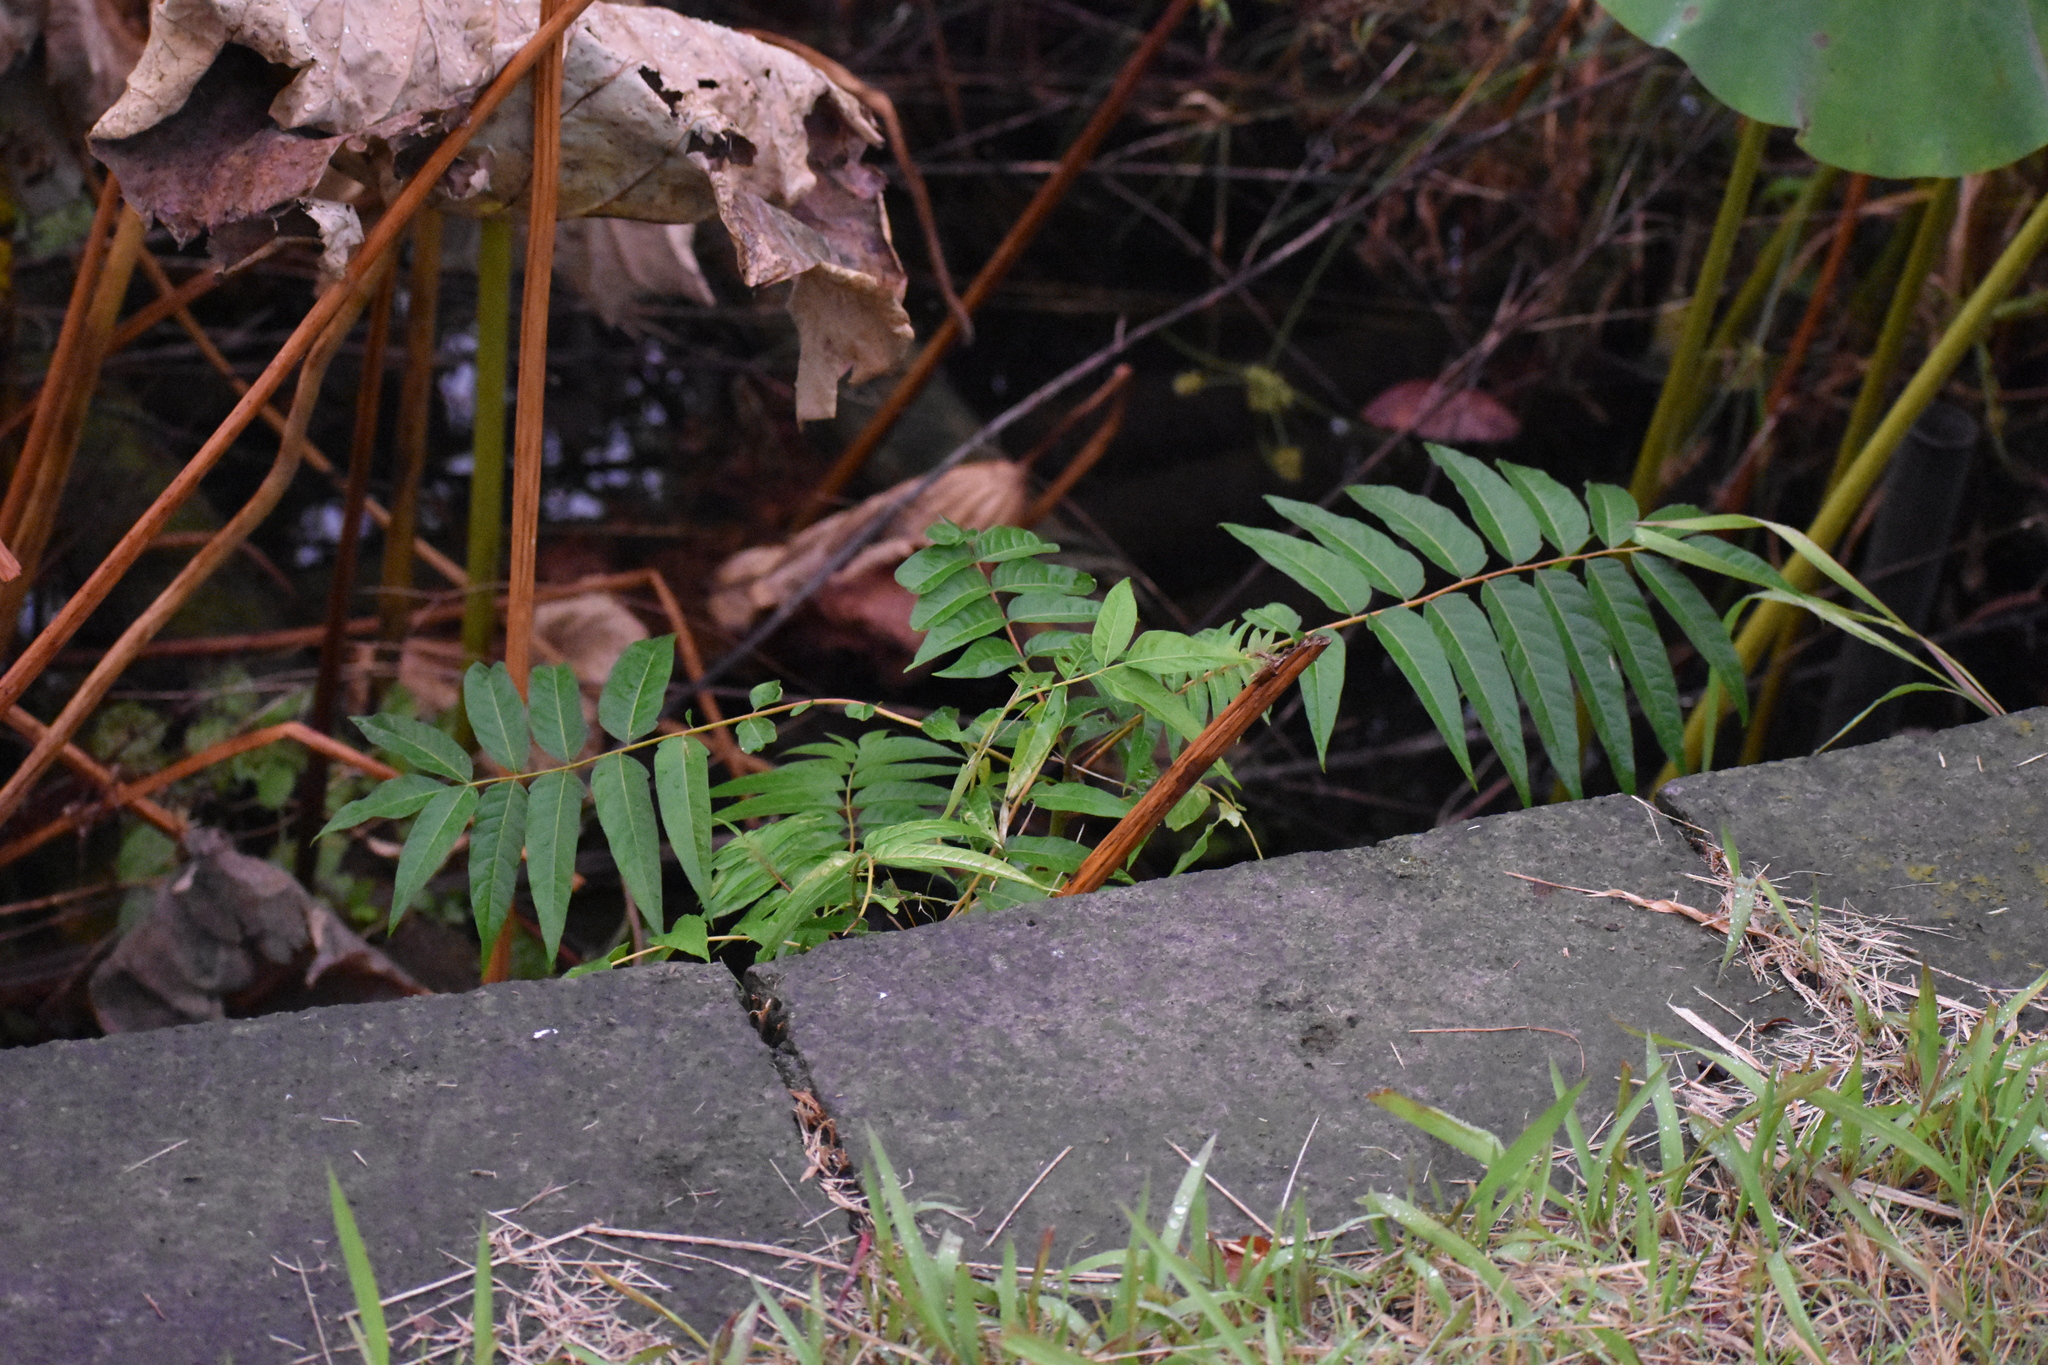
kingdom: Plantae
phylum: Tracheophyta
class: Magnoliopsida
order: Sapindales
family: Simaroubaceae
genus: Ailanthus
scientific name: Ailanthus altissima
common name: Tree-of-heaven
